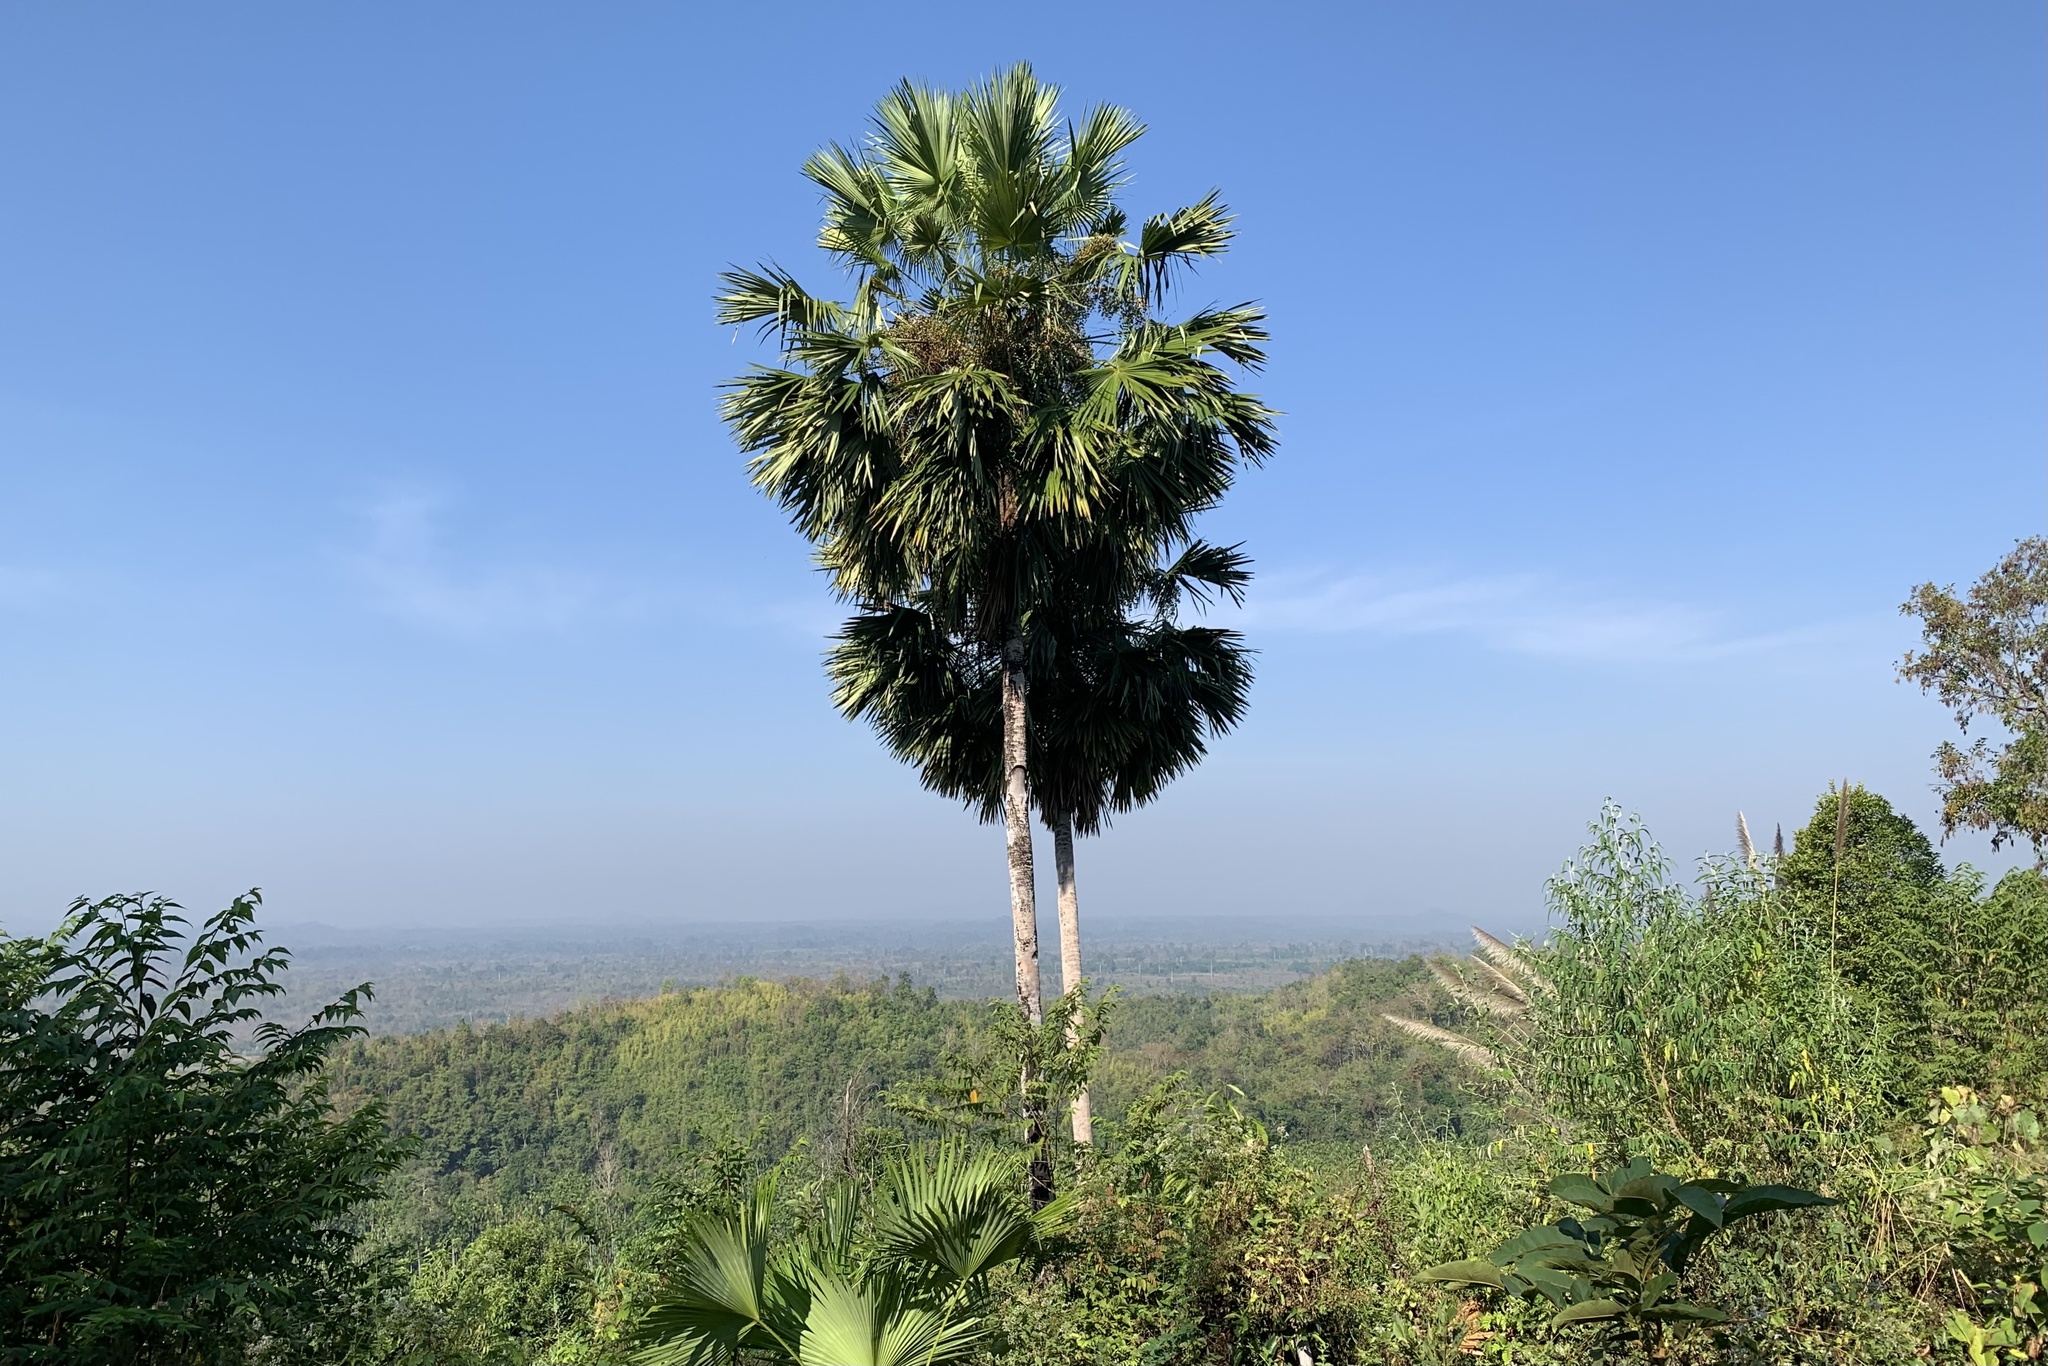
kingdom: Plantae
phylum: Tracheophyta
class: Liliopsida
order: Arecales
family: Arecaceae
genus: Borassus
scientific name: Borassus flabellifer
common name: Palmyra palm
